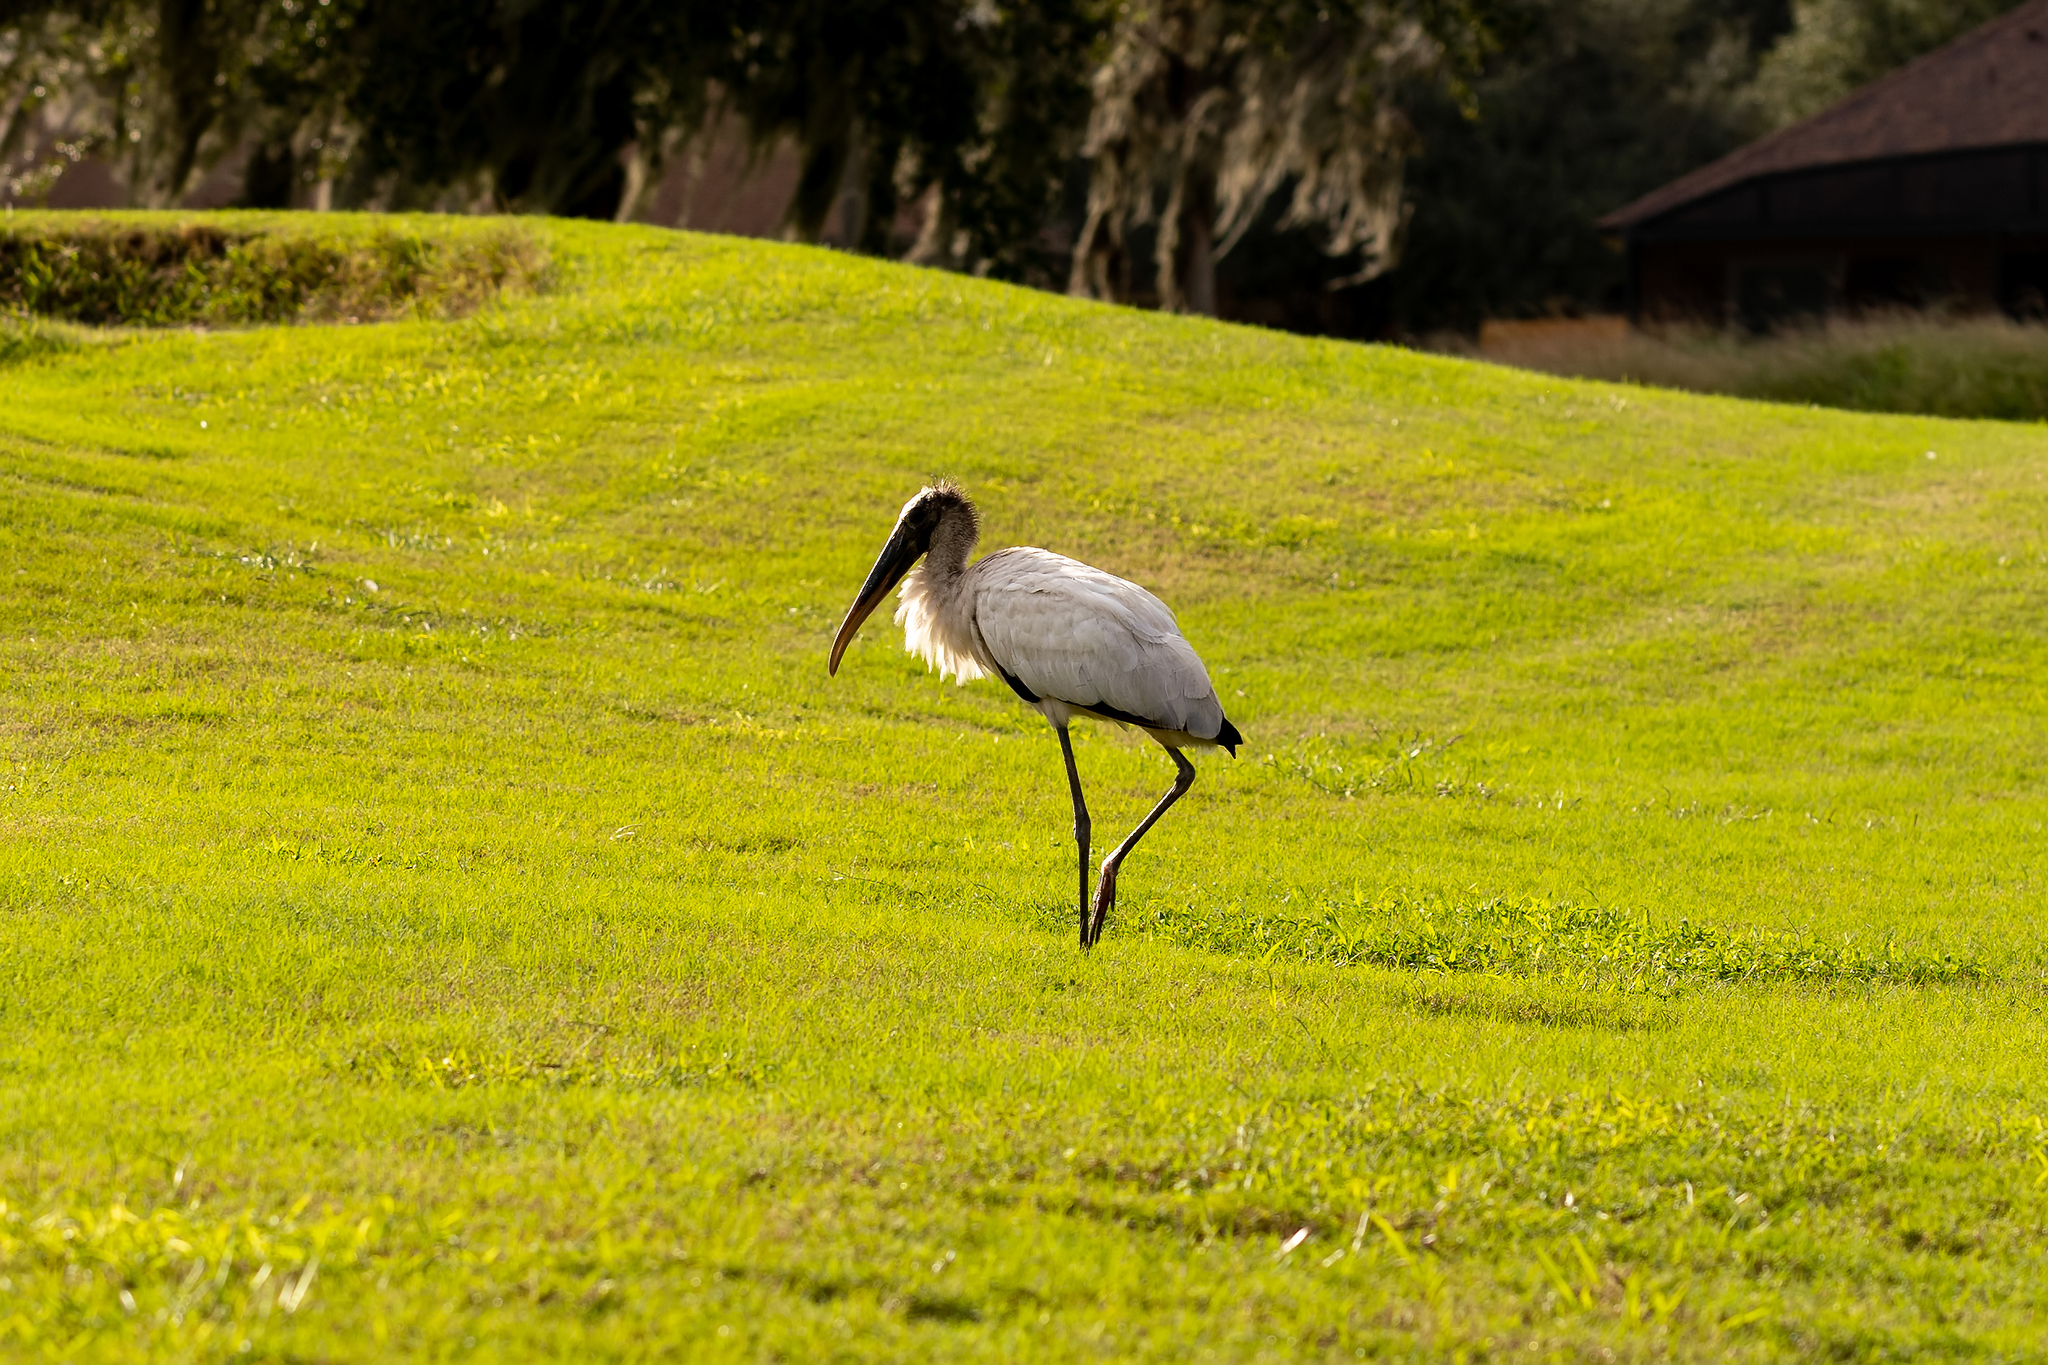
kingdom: Animalia
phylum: Chordata
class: Aves
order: Ciconiiformes
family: Ciconiidae
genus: Mycteria
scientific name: Mycteria americana
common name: Wood stork
